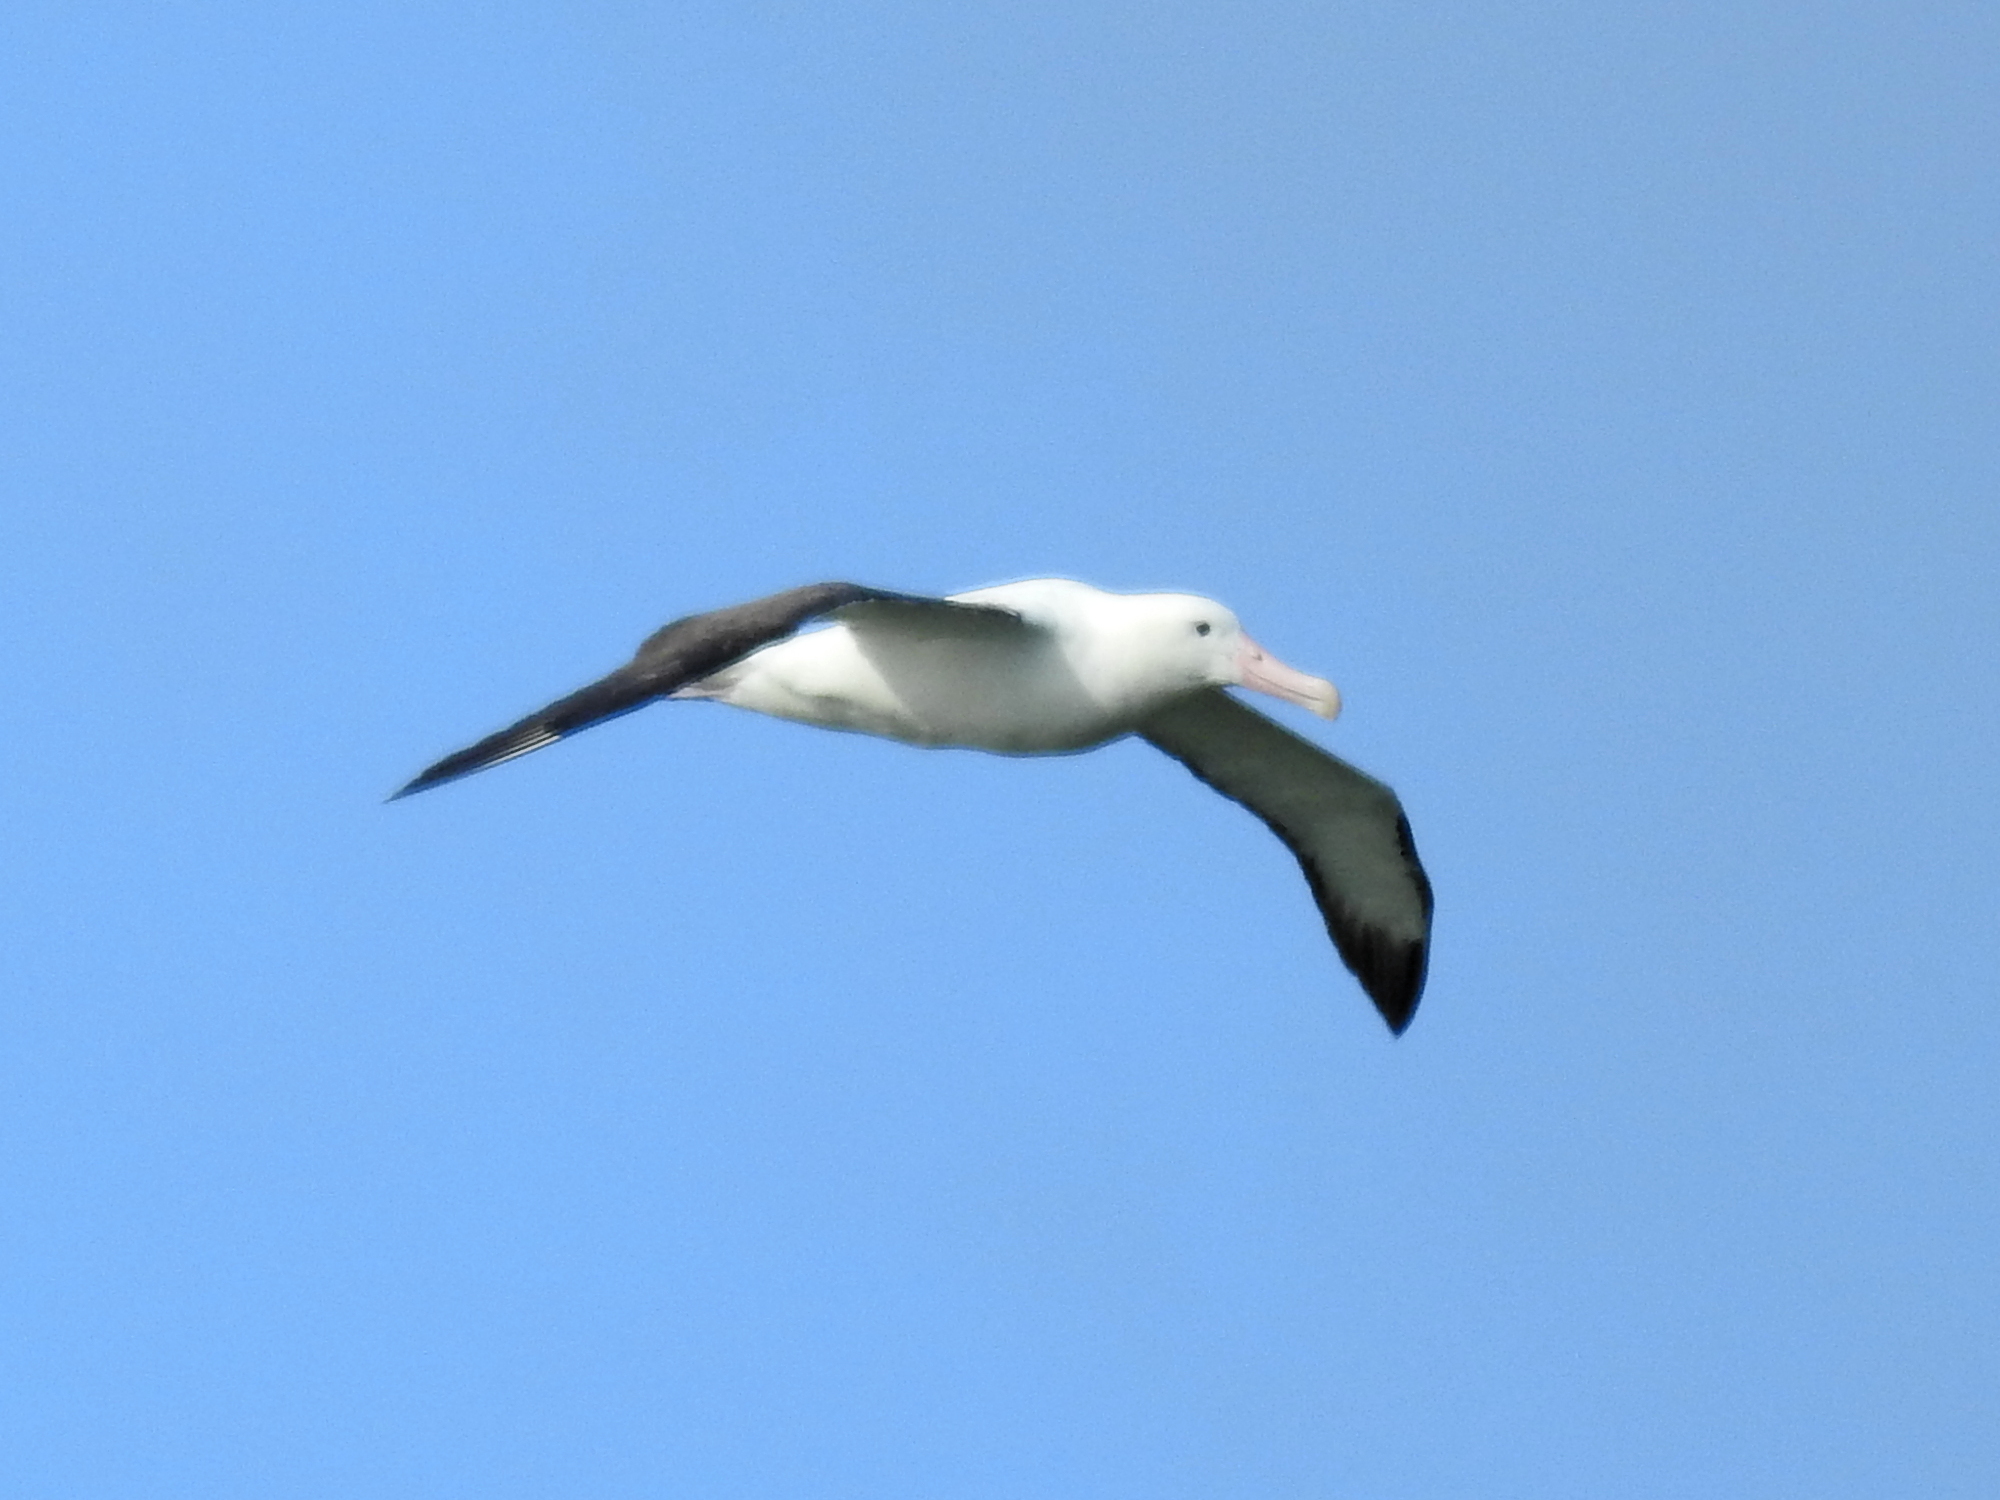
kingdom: Animalia
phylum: Chordata
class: Aves
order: Procellariiformes
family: Diomedeidae
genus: Diomedea
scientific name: Diomedea sanfordi
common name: Northern royal albatross
